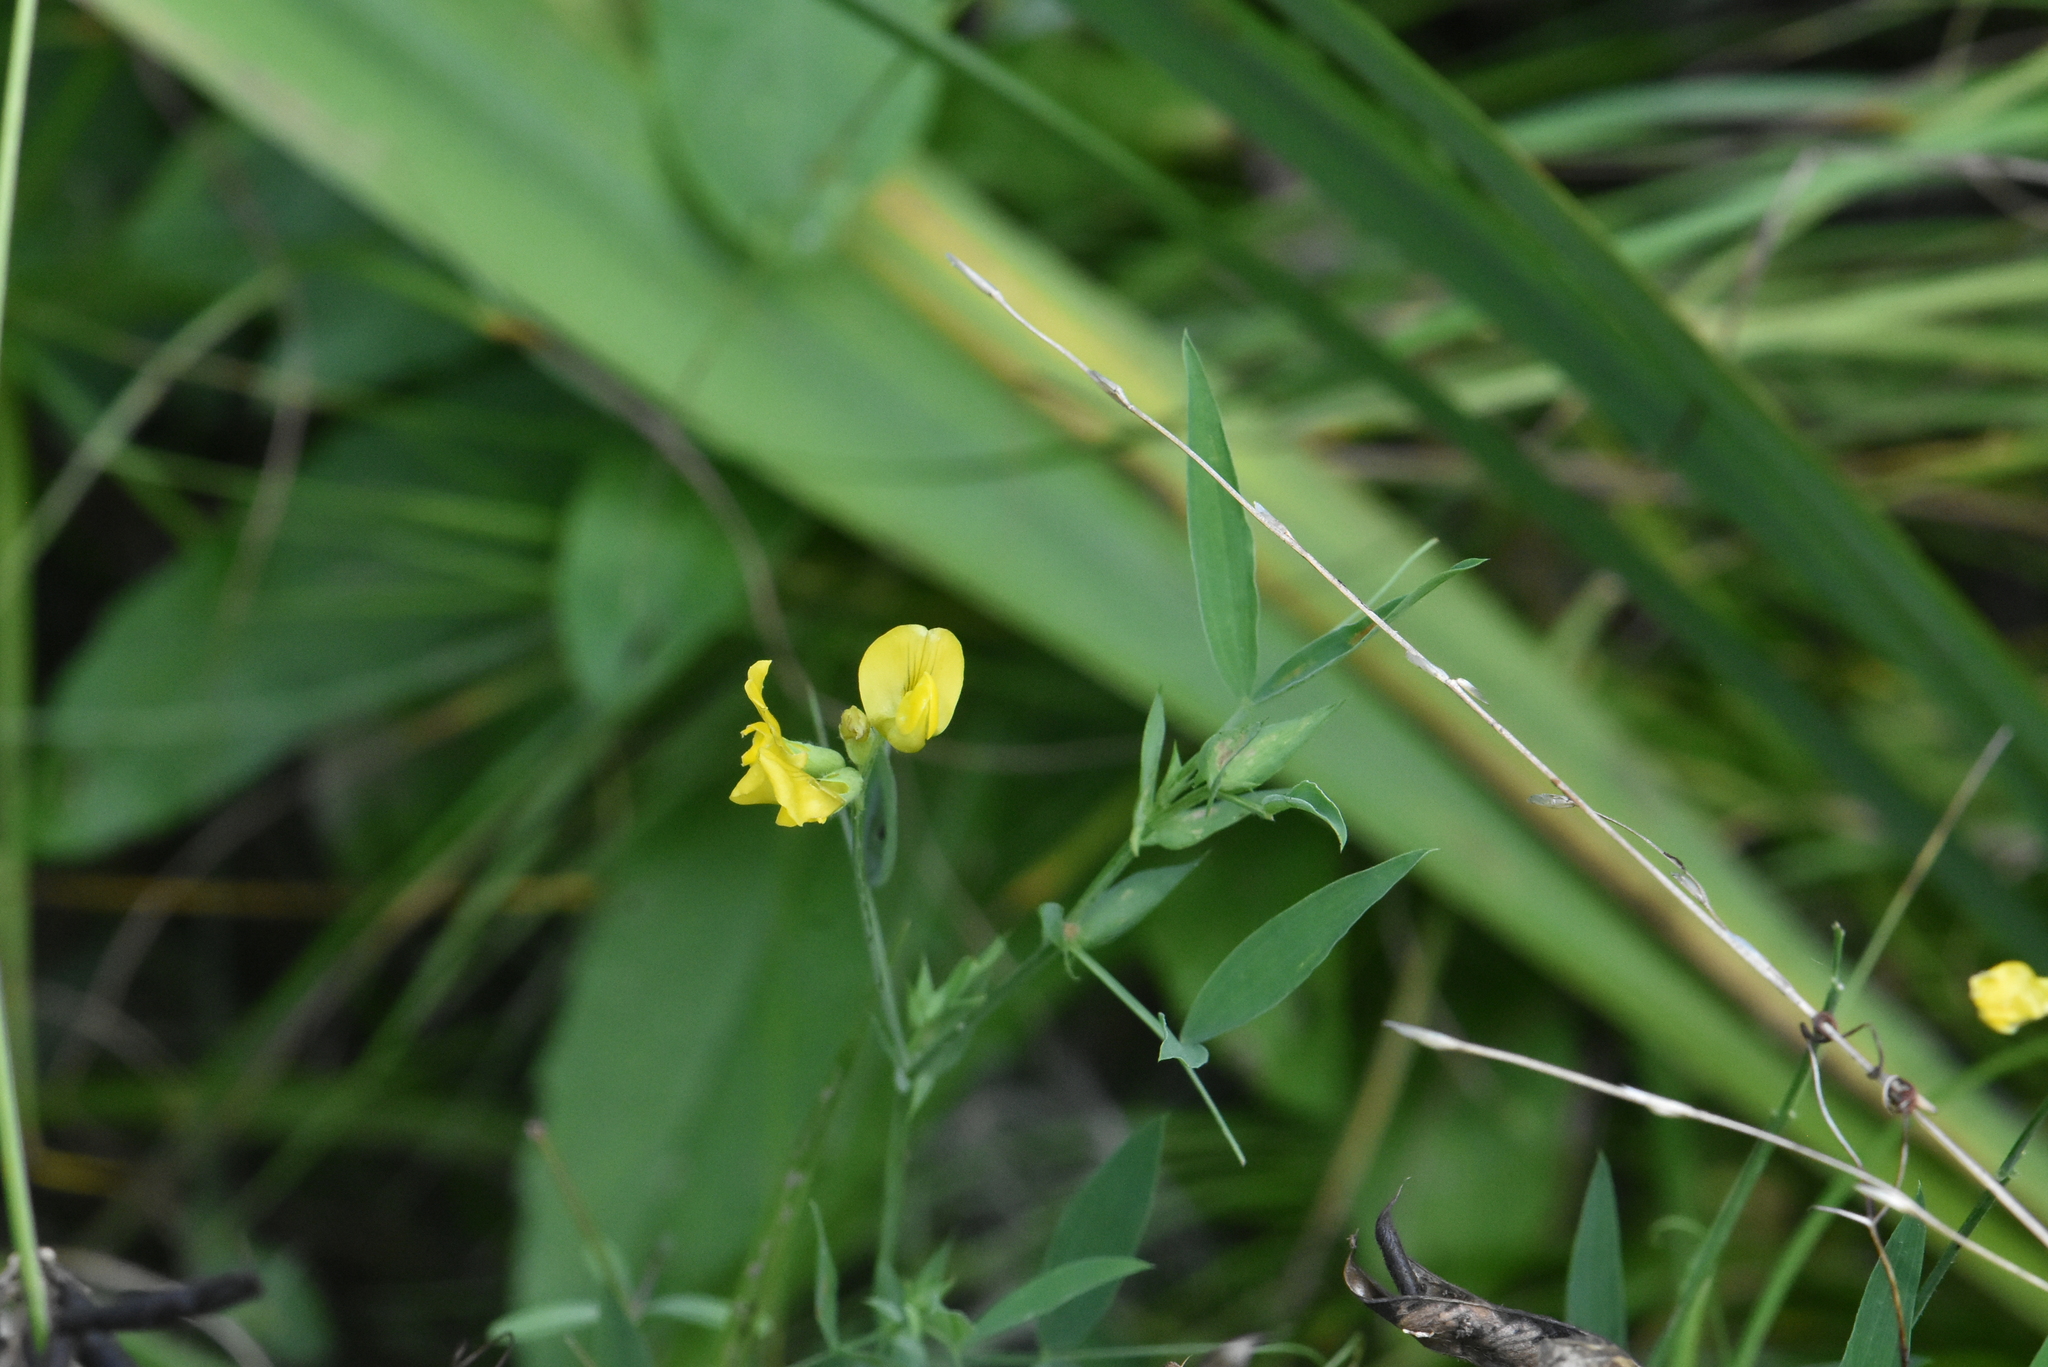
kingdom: Plantae
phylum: Tracheophyta
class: Magnoliopsida
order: Fabales
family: Fabaceae
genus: Lathyrus
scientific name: Lathyrus pratensis
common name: Meadow vetchling
